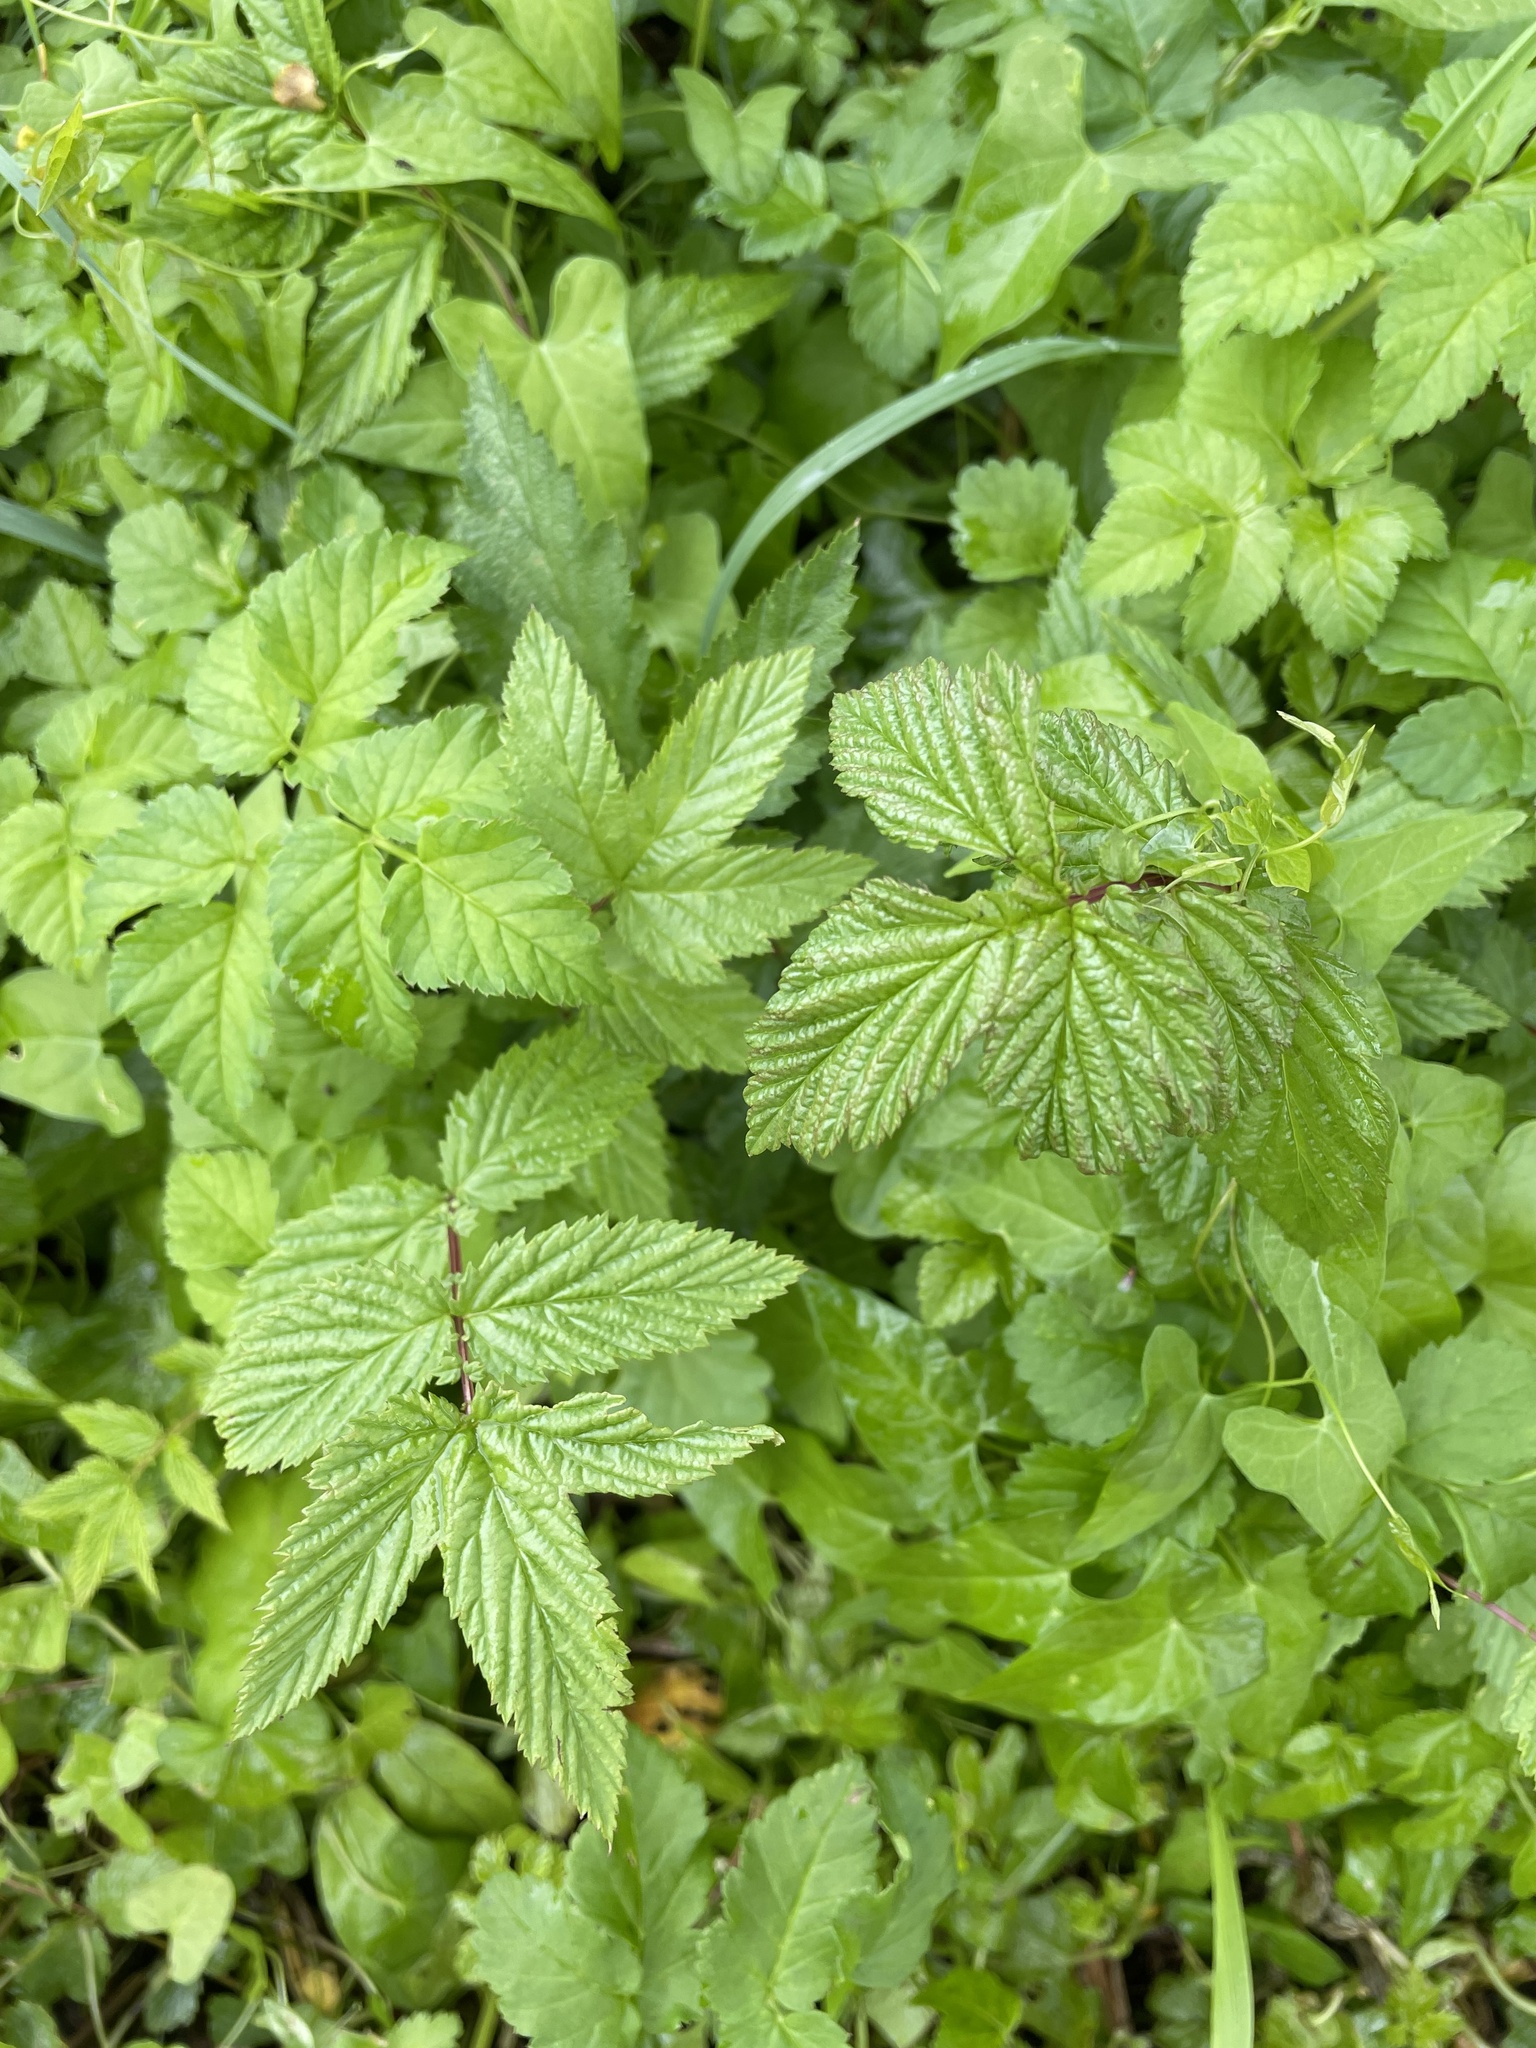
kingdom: Plantae
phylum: Tracheophyta
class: Magnoliopsida
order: Rosales
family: Rosaceae
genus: Filipendula
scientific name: Filipendula ulmaria
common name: Meadowsweet
